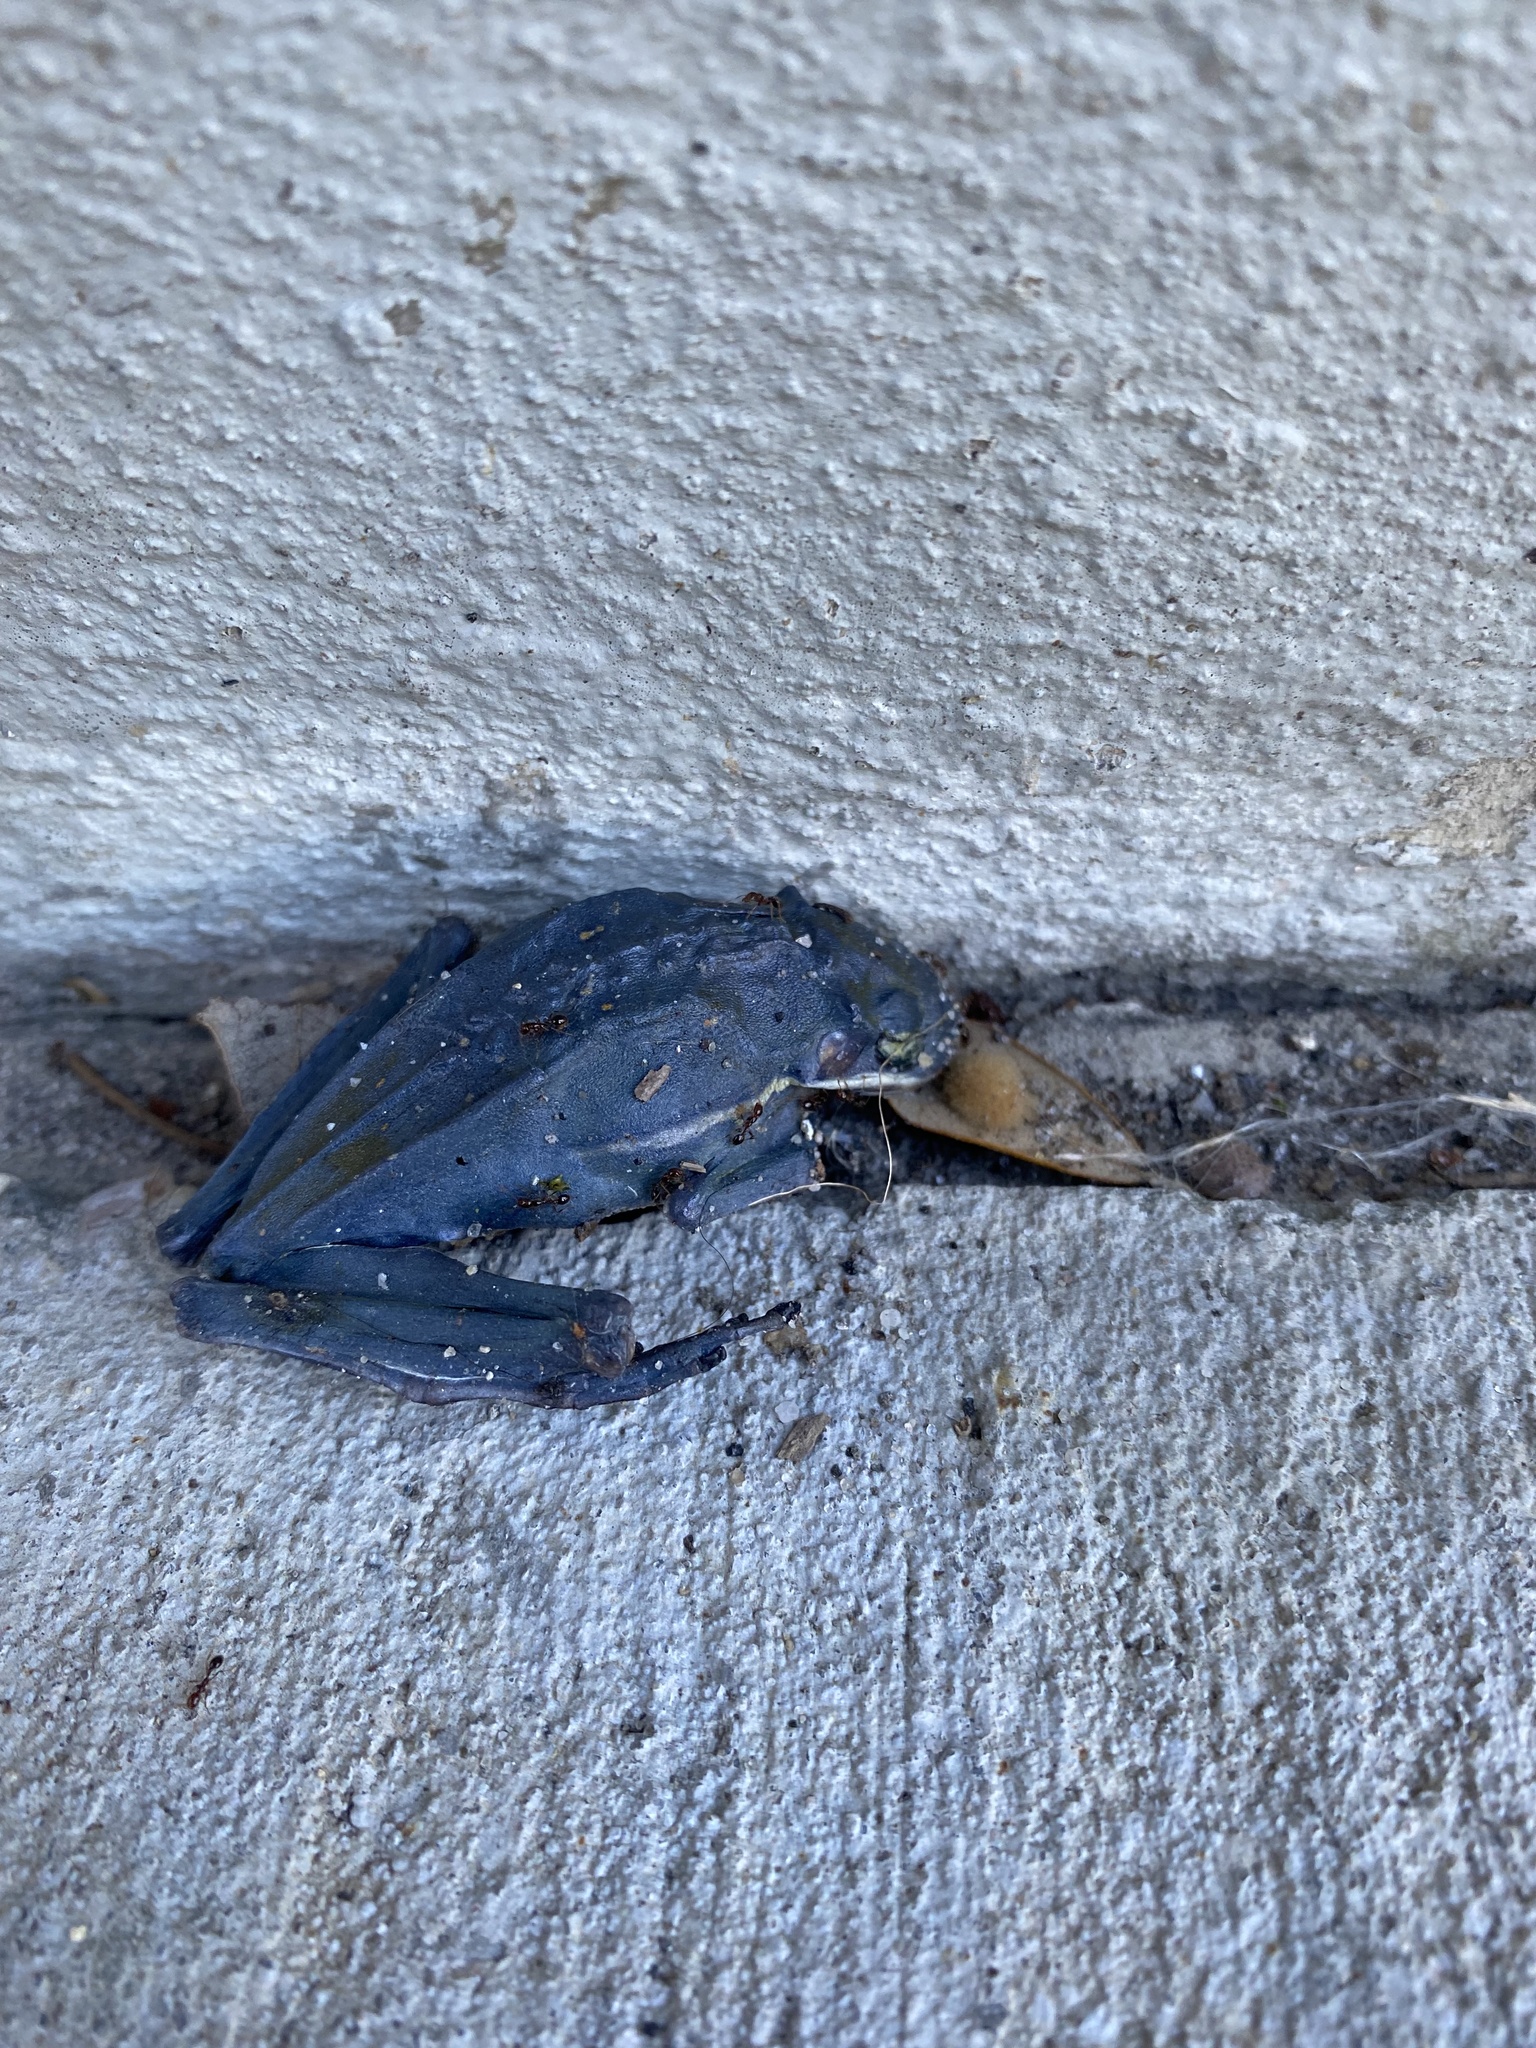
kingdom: Animalia
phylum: Chordata
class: Amphibia
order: Anura
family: Hylidae
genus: Dryophytes
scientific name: Dryophytes cinereus
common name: Green treefrog
